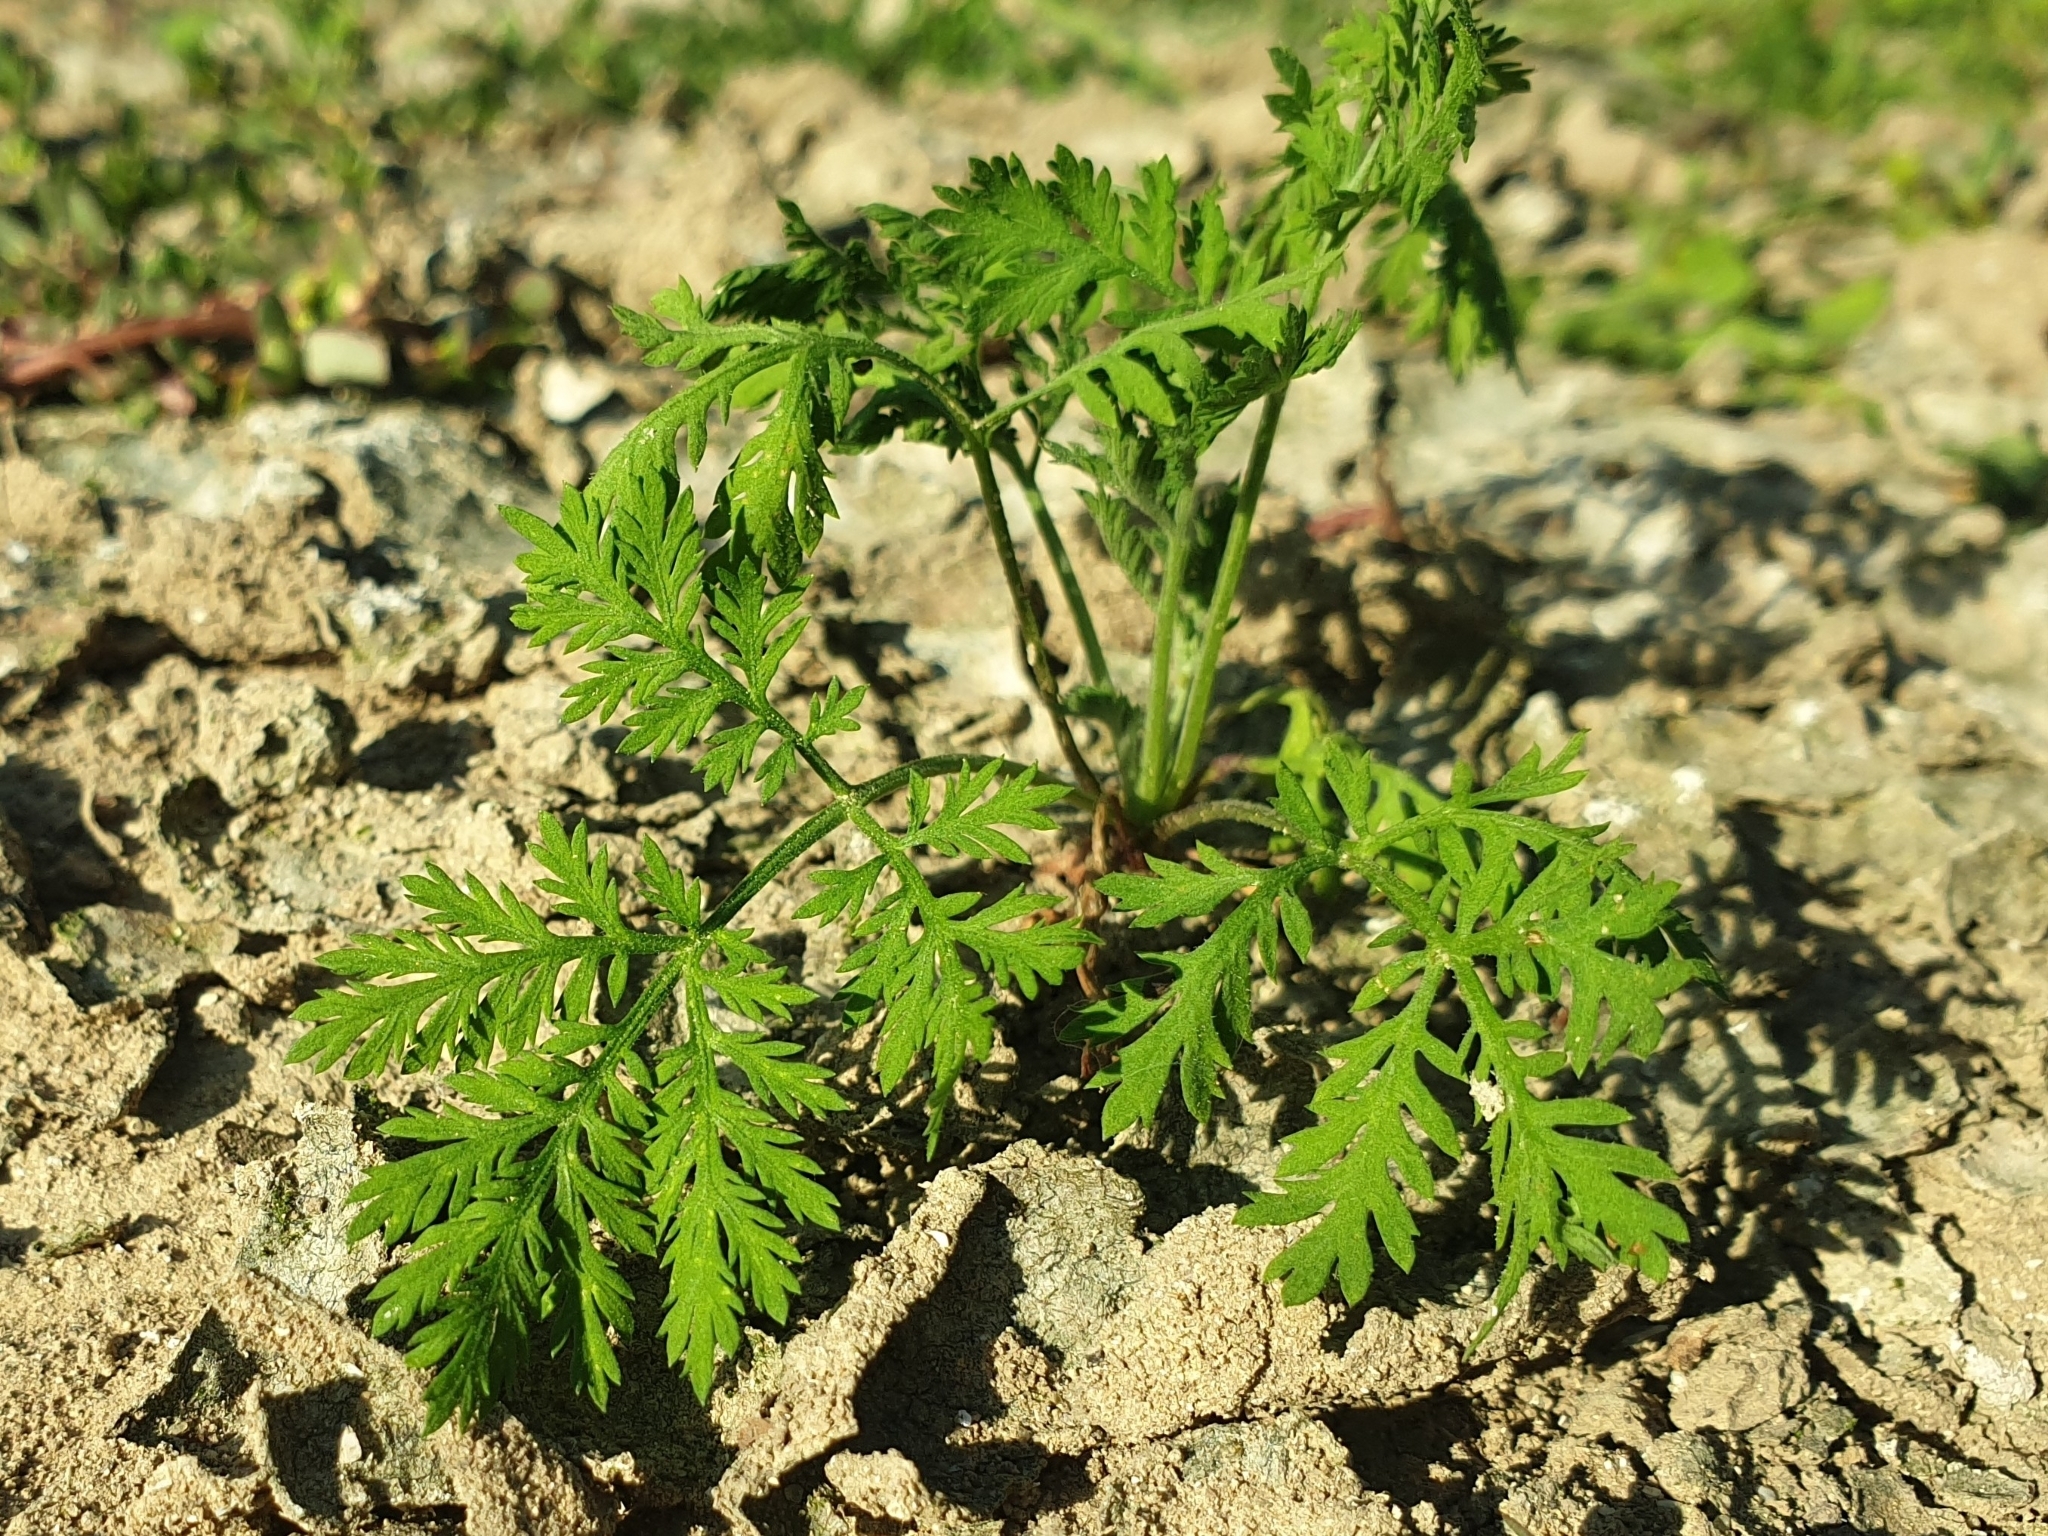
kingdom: Plantae
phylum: Tracheophyta
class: Magnoliopsida
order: Asterales
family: Asteraceae
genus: Artemisia
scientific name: Artemisia annua
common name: Sweet sagewort
